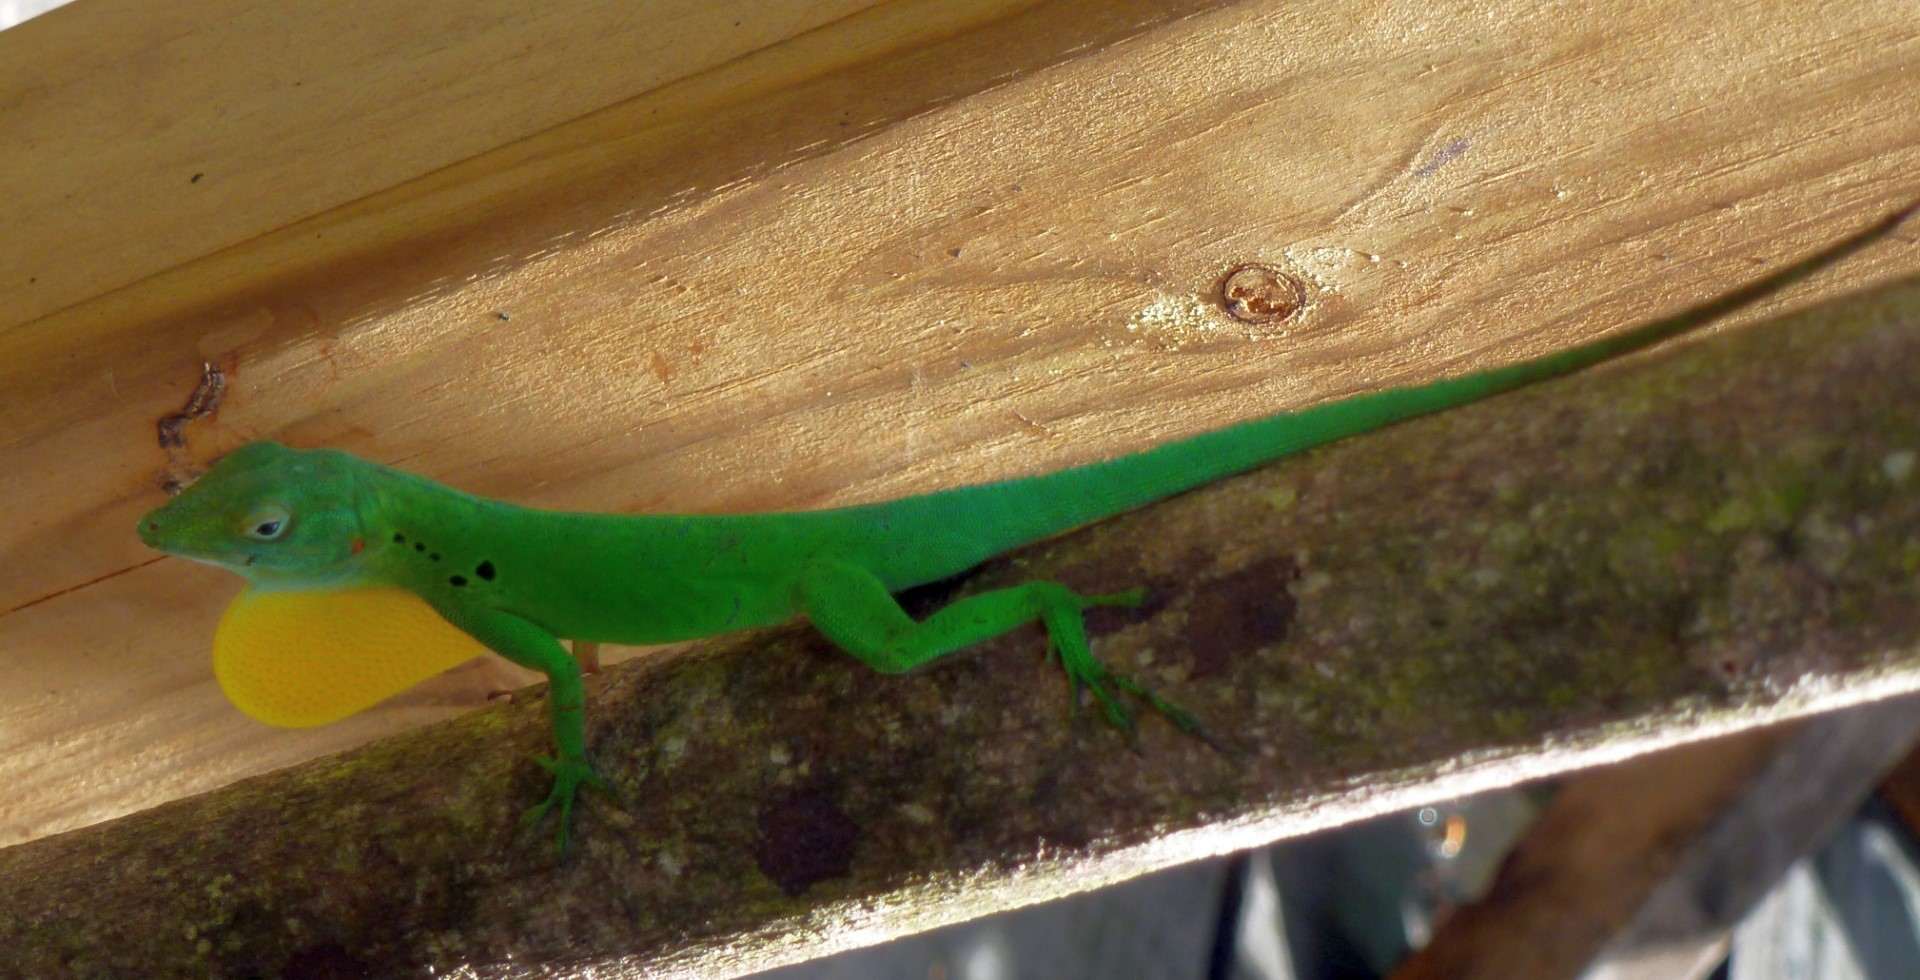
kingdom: Animalia
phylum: Chordata
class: Squamata
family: Dactyloidae
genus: Anolis
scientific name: Anolis marmoratus
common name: Guadeloupe anole
